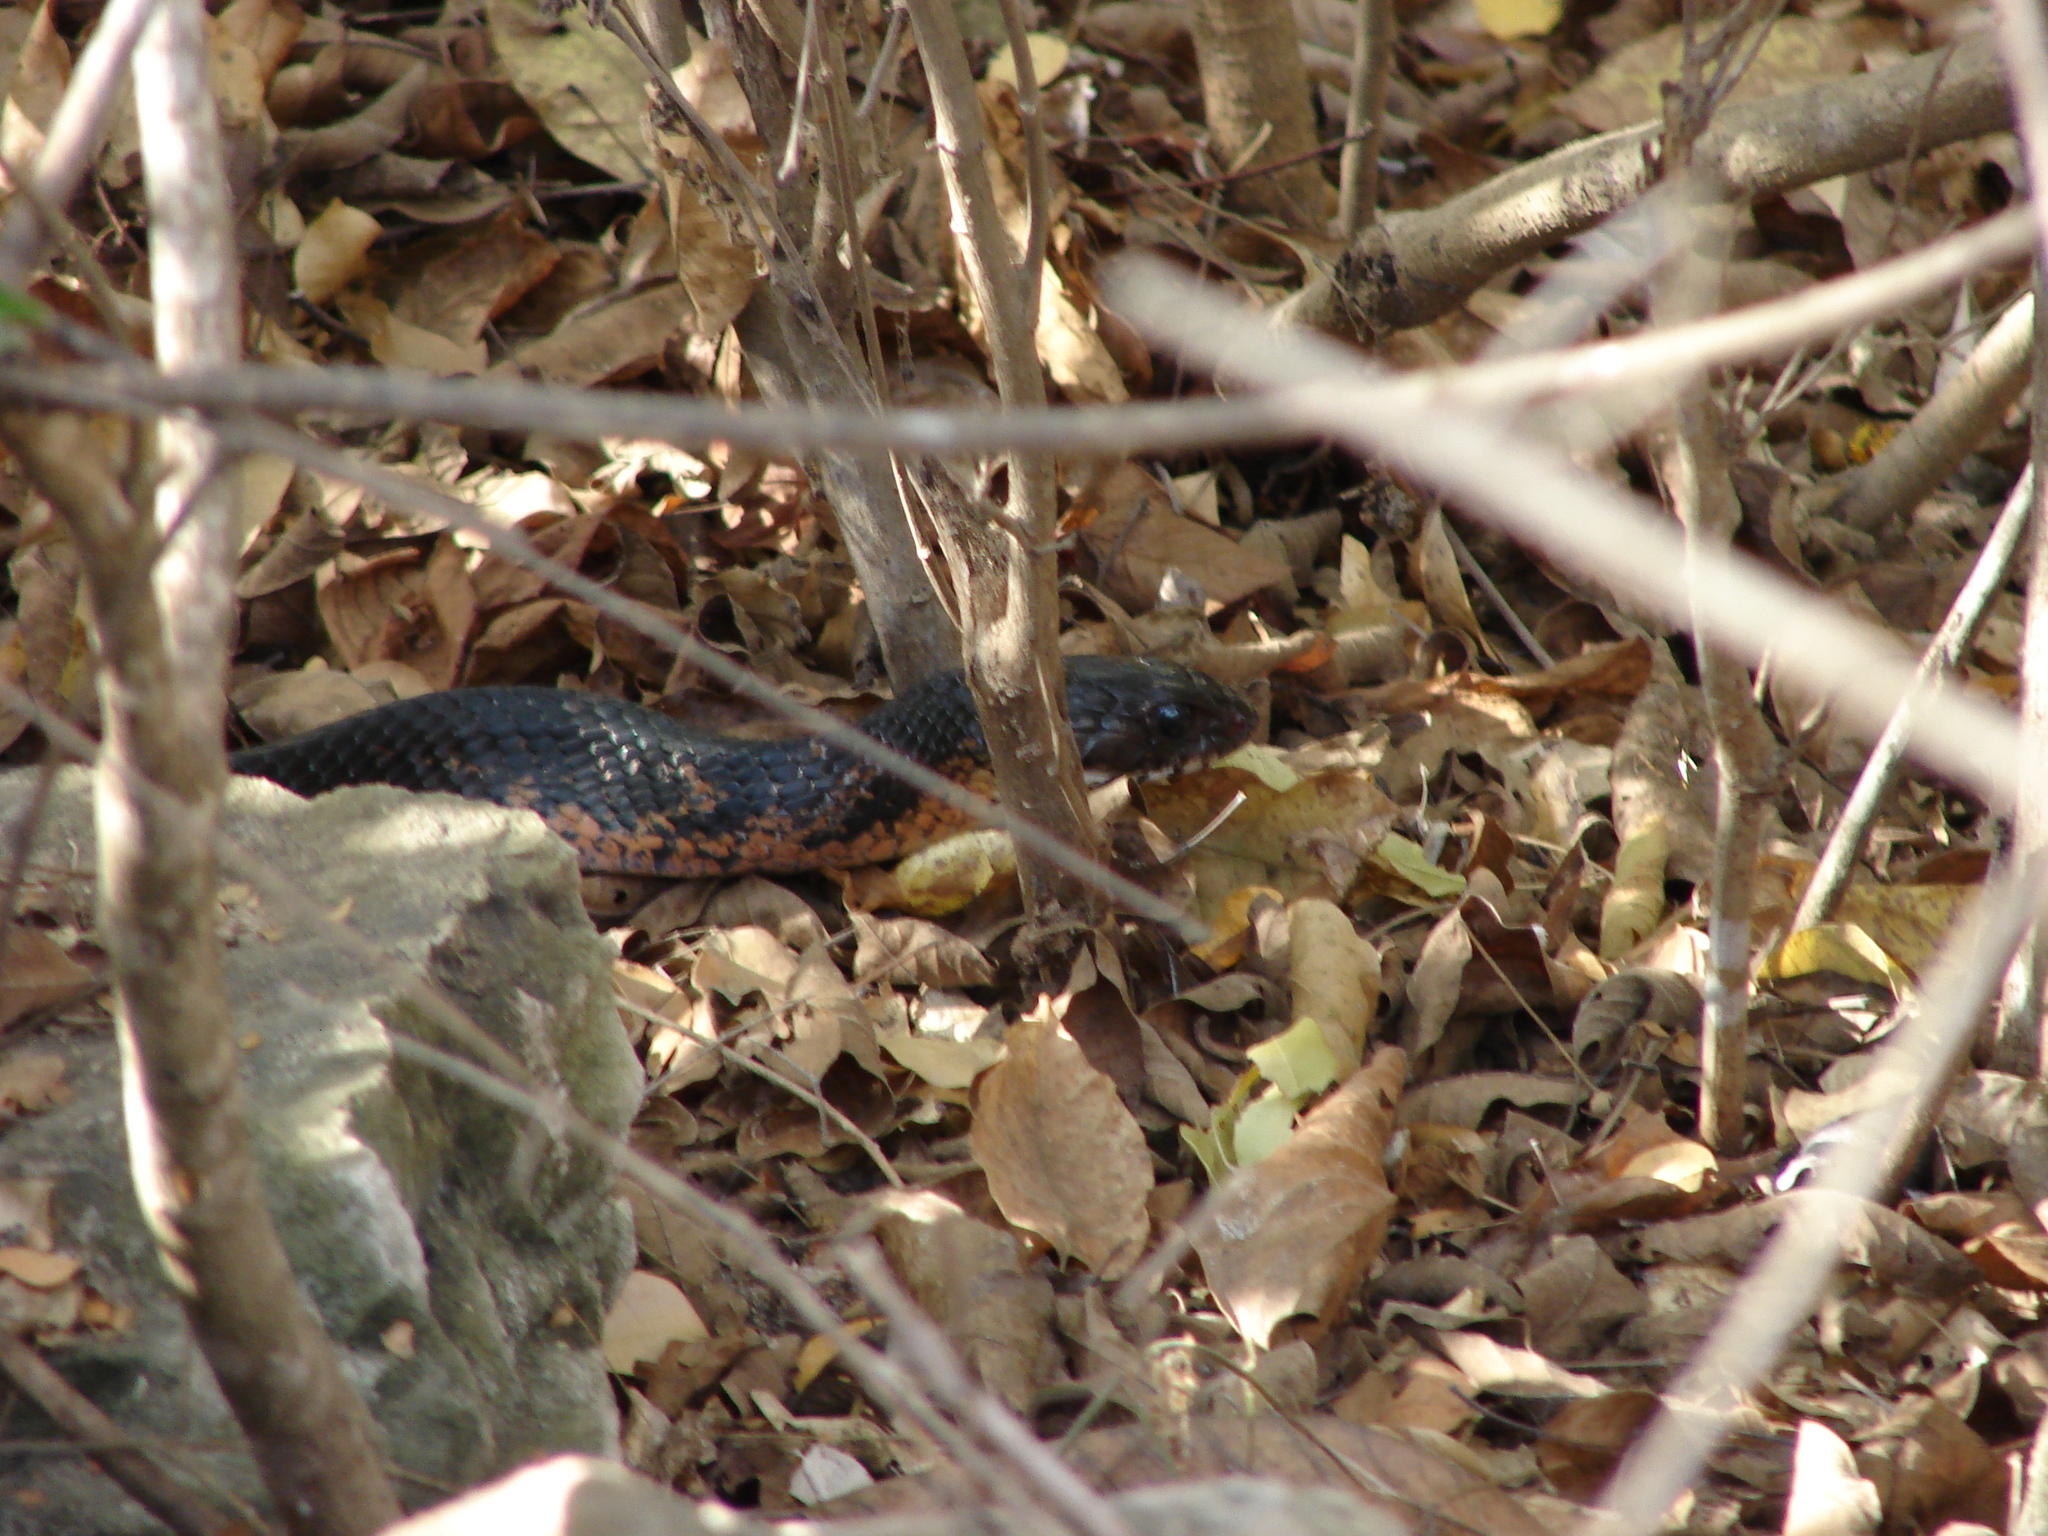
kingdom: Animalia
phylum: Chordata
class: Squamata
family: Colubridae
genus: Drymarchon
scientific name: Drymarchon melanurus
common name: Central american indigo snake
